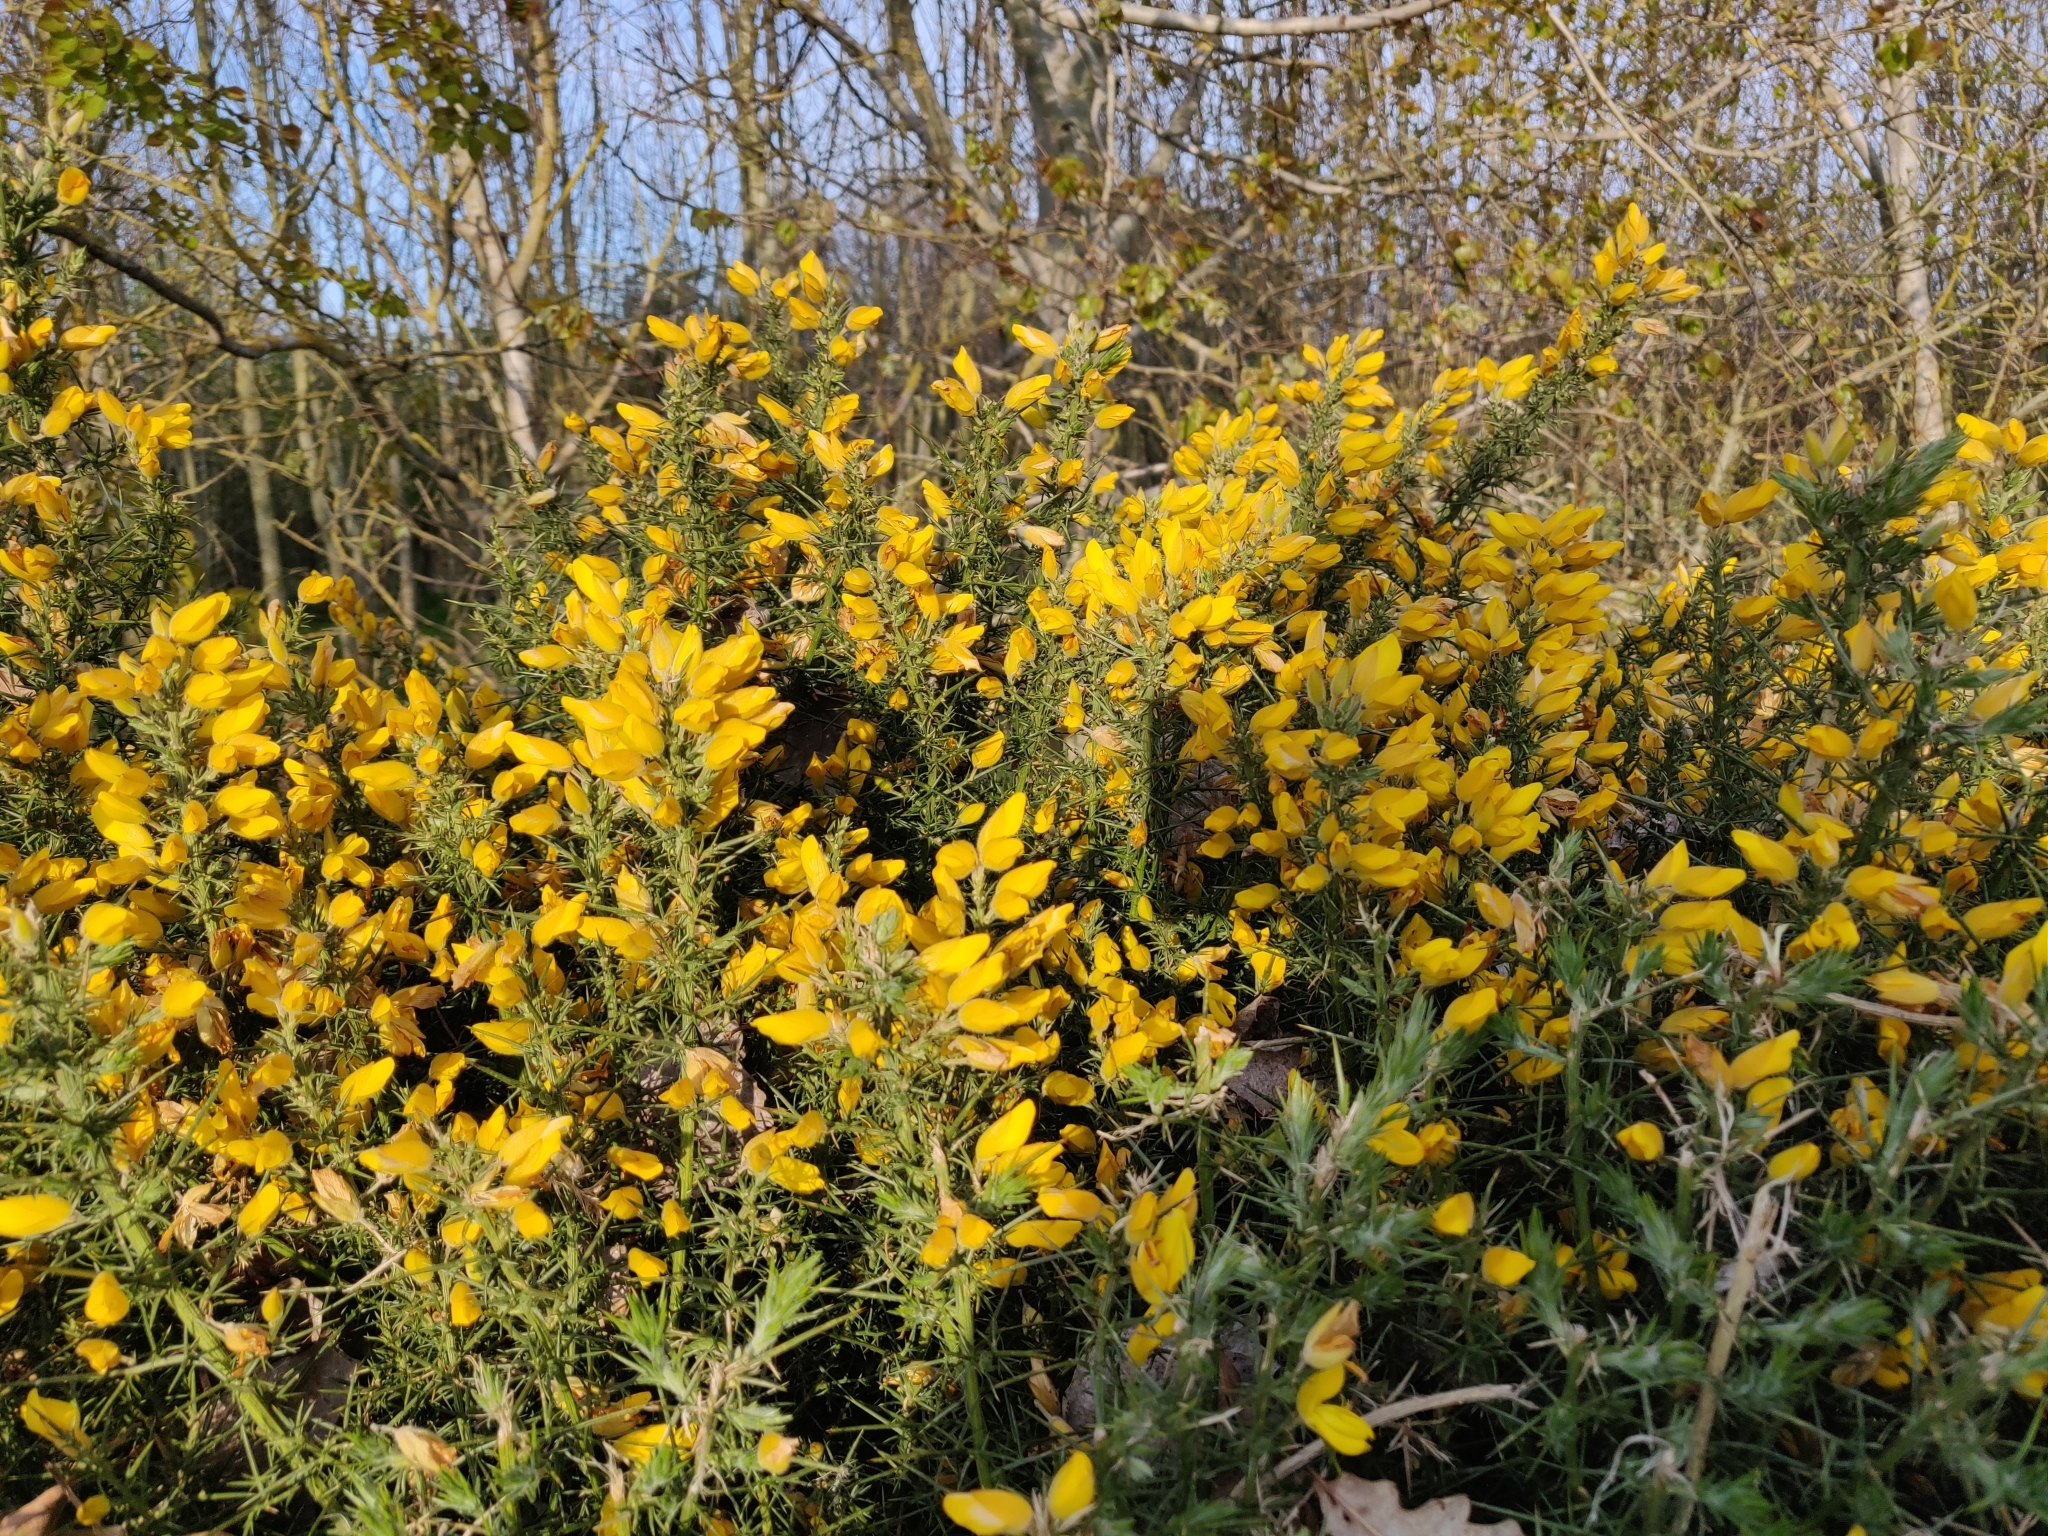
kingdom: Plantae
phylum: Tracheophyta
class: Magnoliopsida
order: Fabales
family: Fabaceae
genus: Ulex
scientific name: Ulex europaeus
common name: Common gorse
